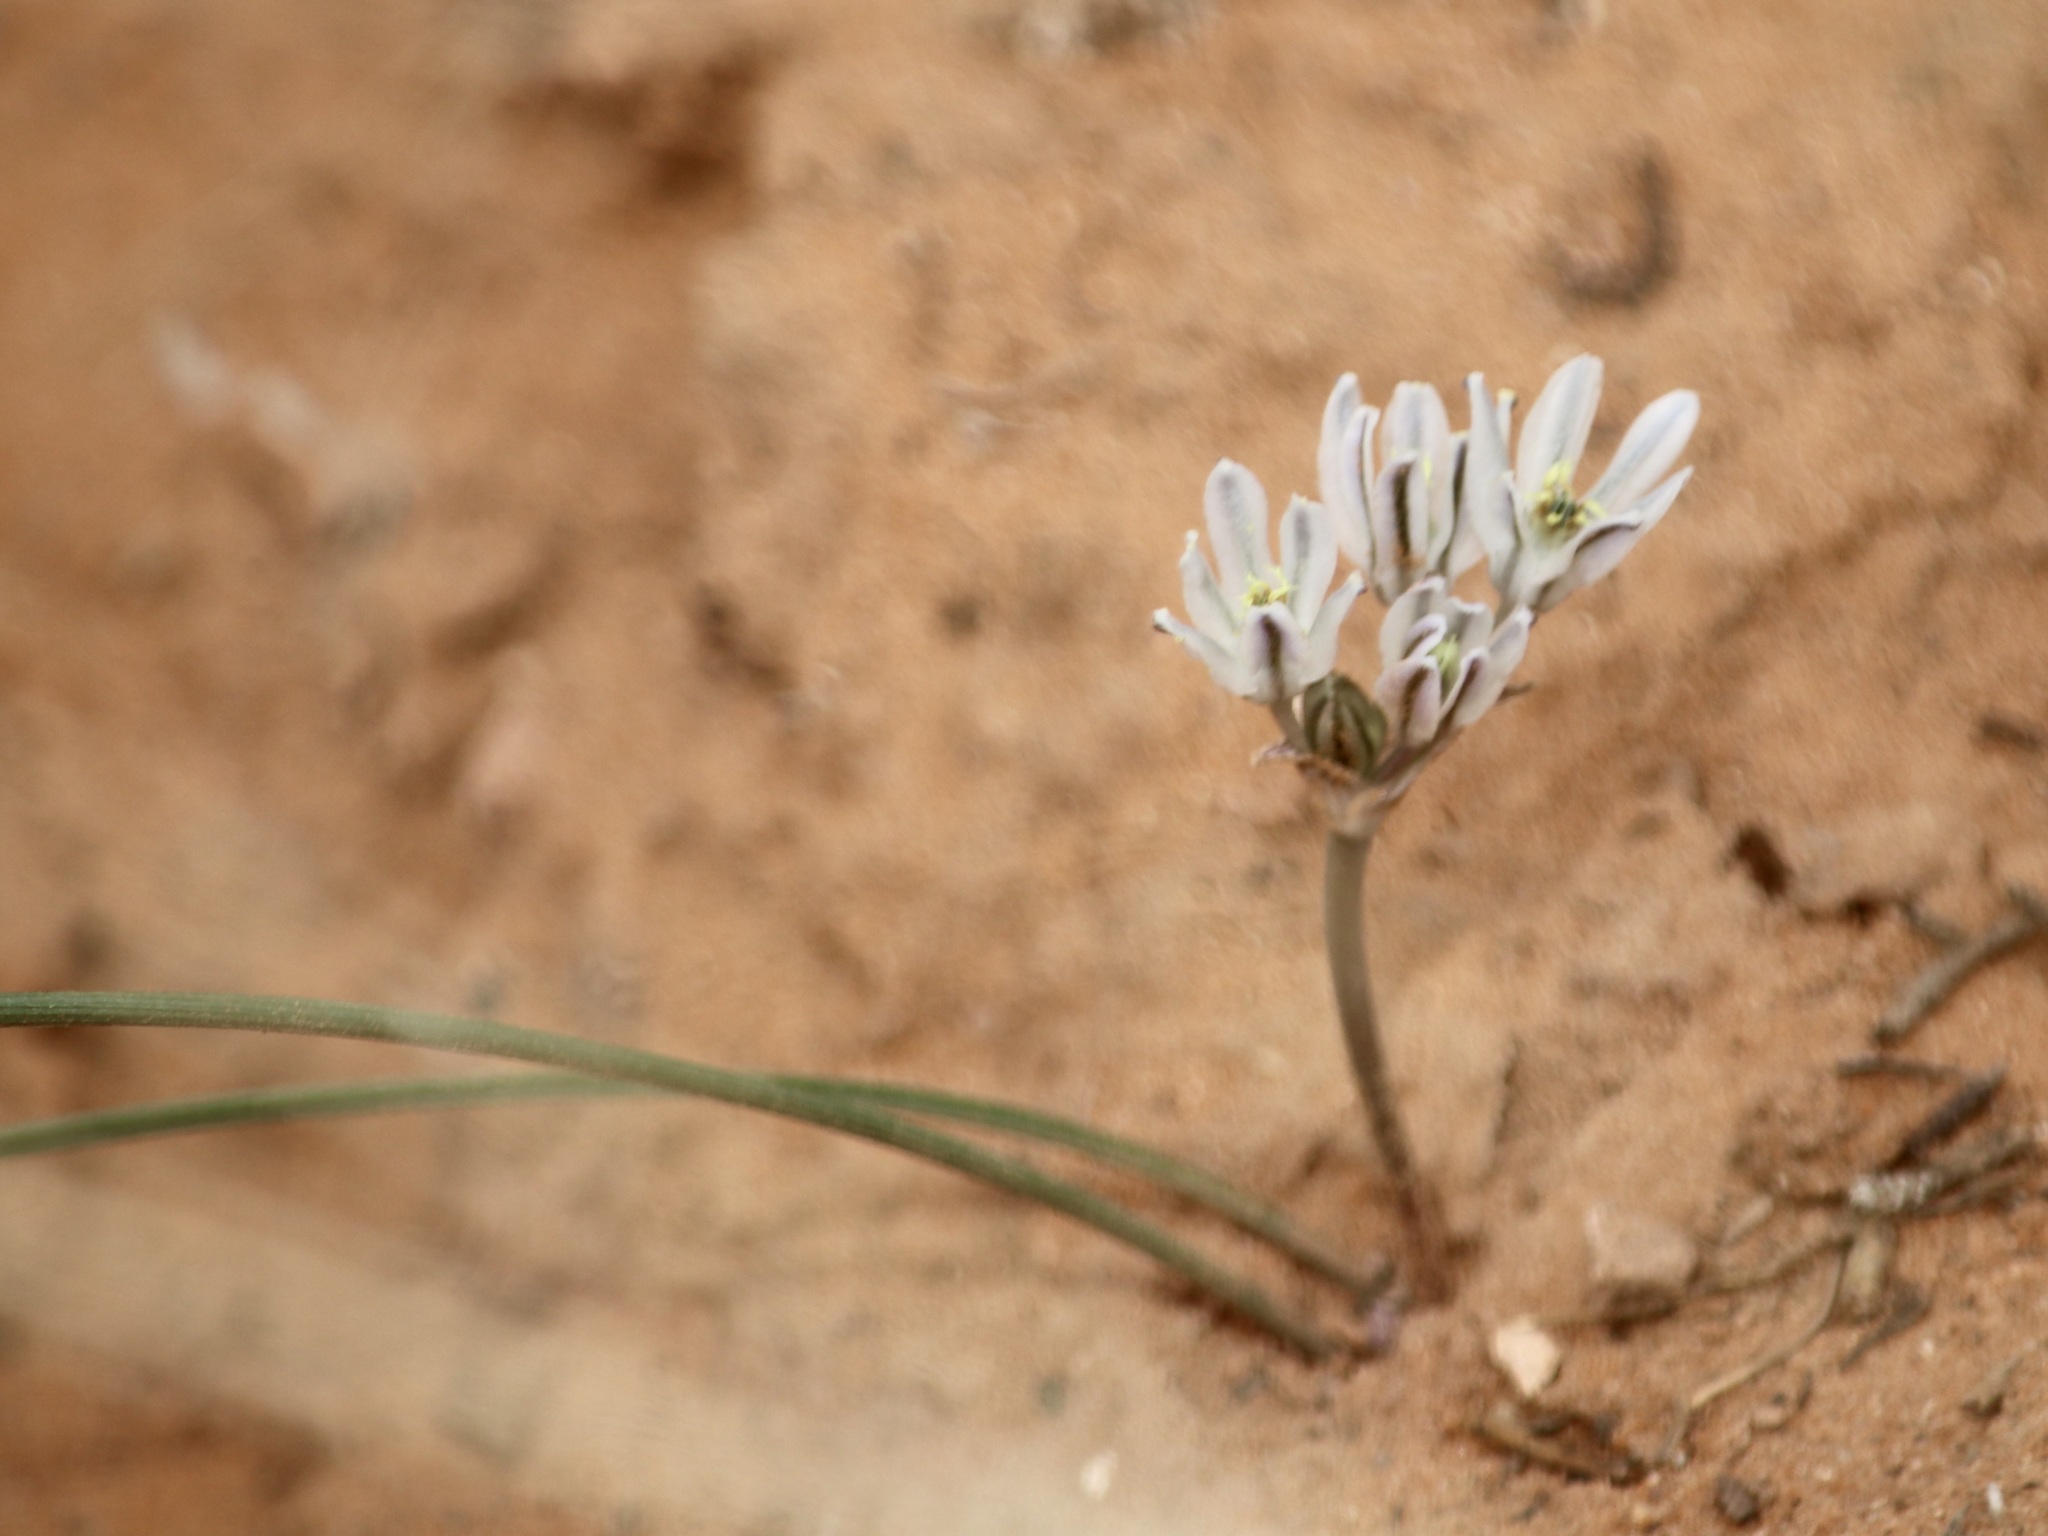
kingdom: Plantae
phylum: Tracheophyta
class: Liliopsida
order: Asparagales
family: Asparagaceae
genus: Androstephium
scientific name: Androstephium breviflorum
